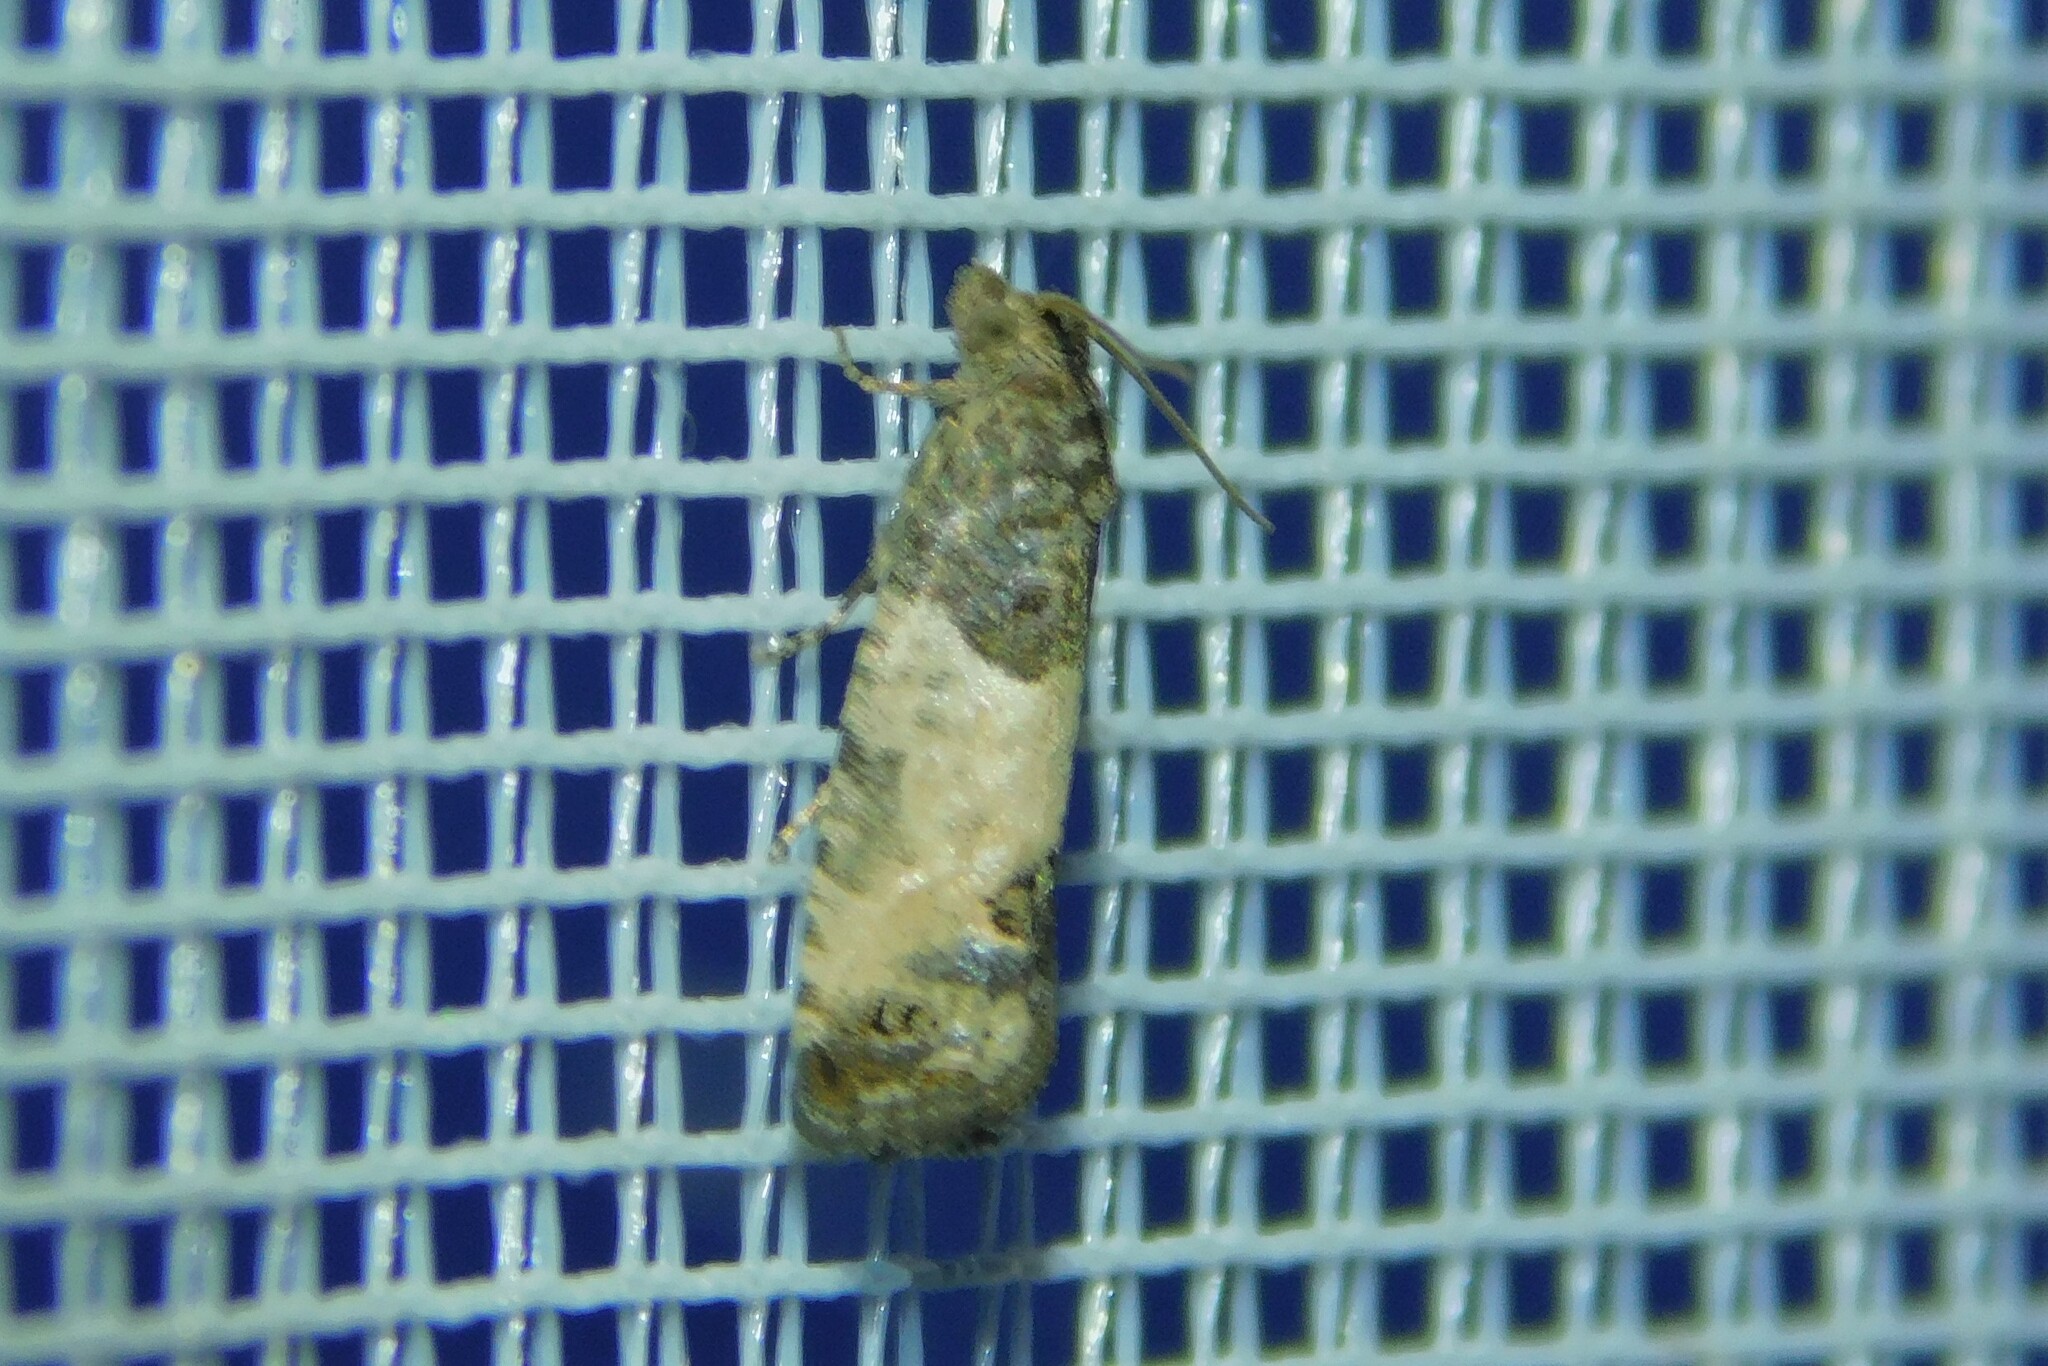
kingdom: Animalia
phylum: Arthropoda
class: Insecta
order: Lepidoptera
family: Tortricidae
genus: Spilonota
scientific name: Spilonota ocellana
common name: Bud moth
